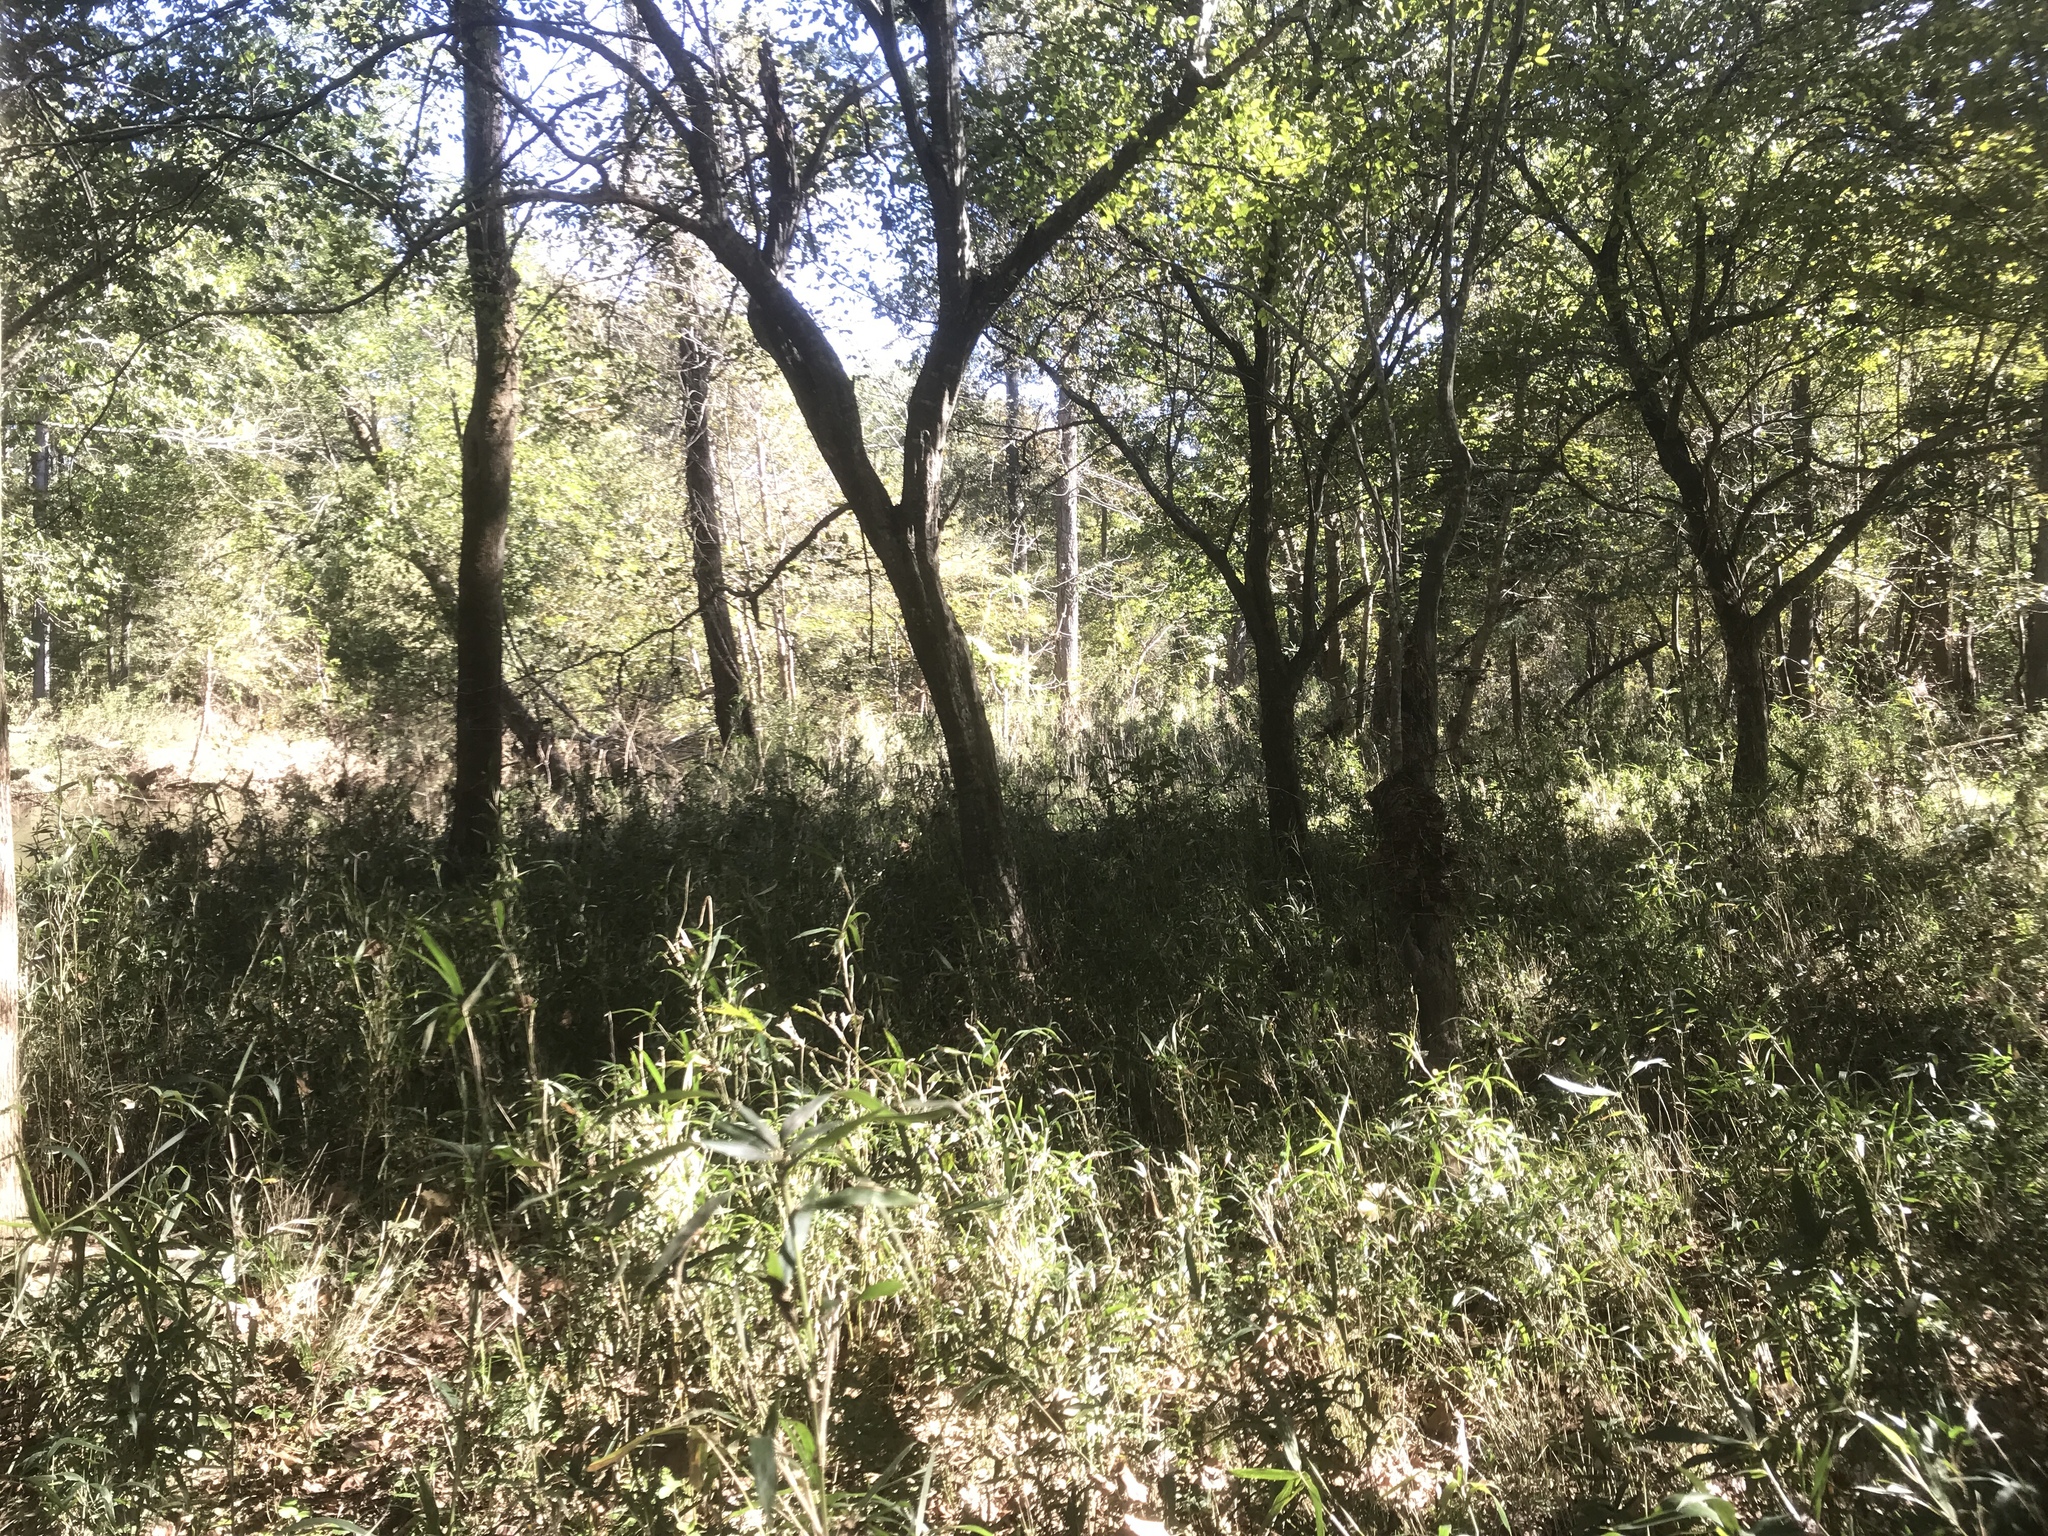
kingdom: Plantae
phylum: Tracheophyta
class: Liliopsida
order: Poales
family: Poaceae
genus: Arundinaria
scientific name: Arundinaria tecta
